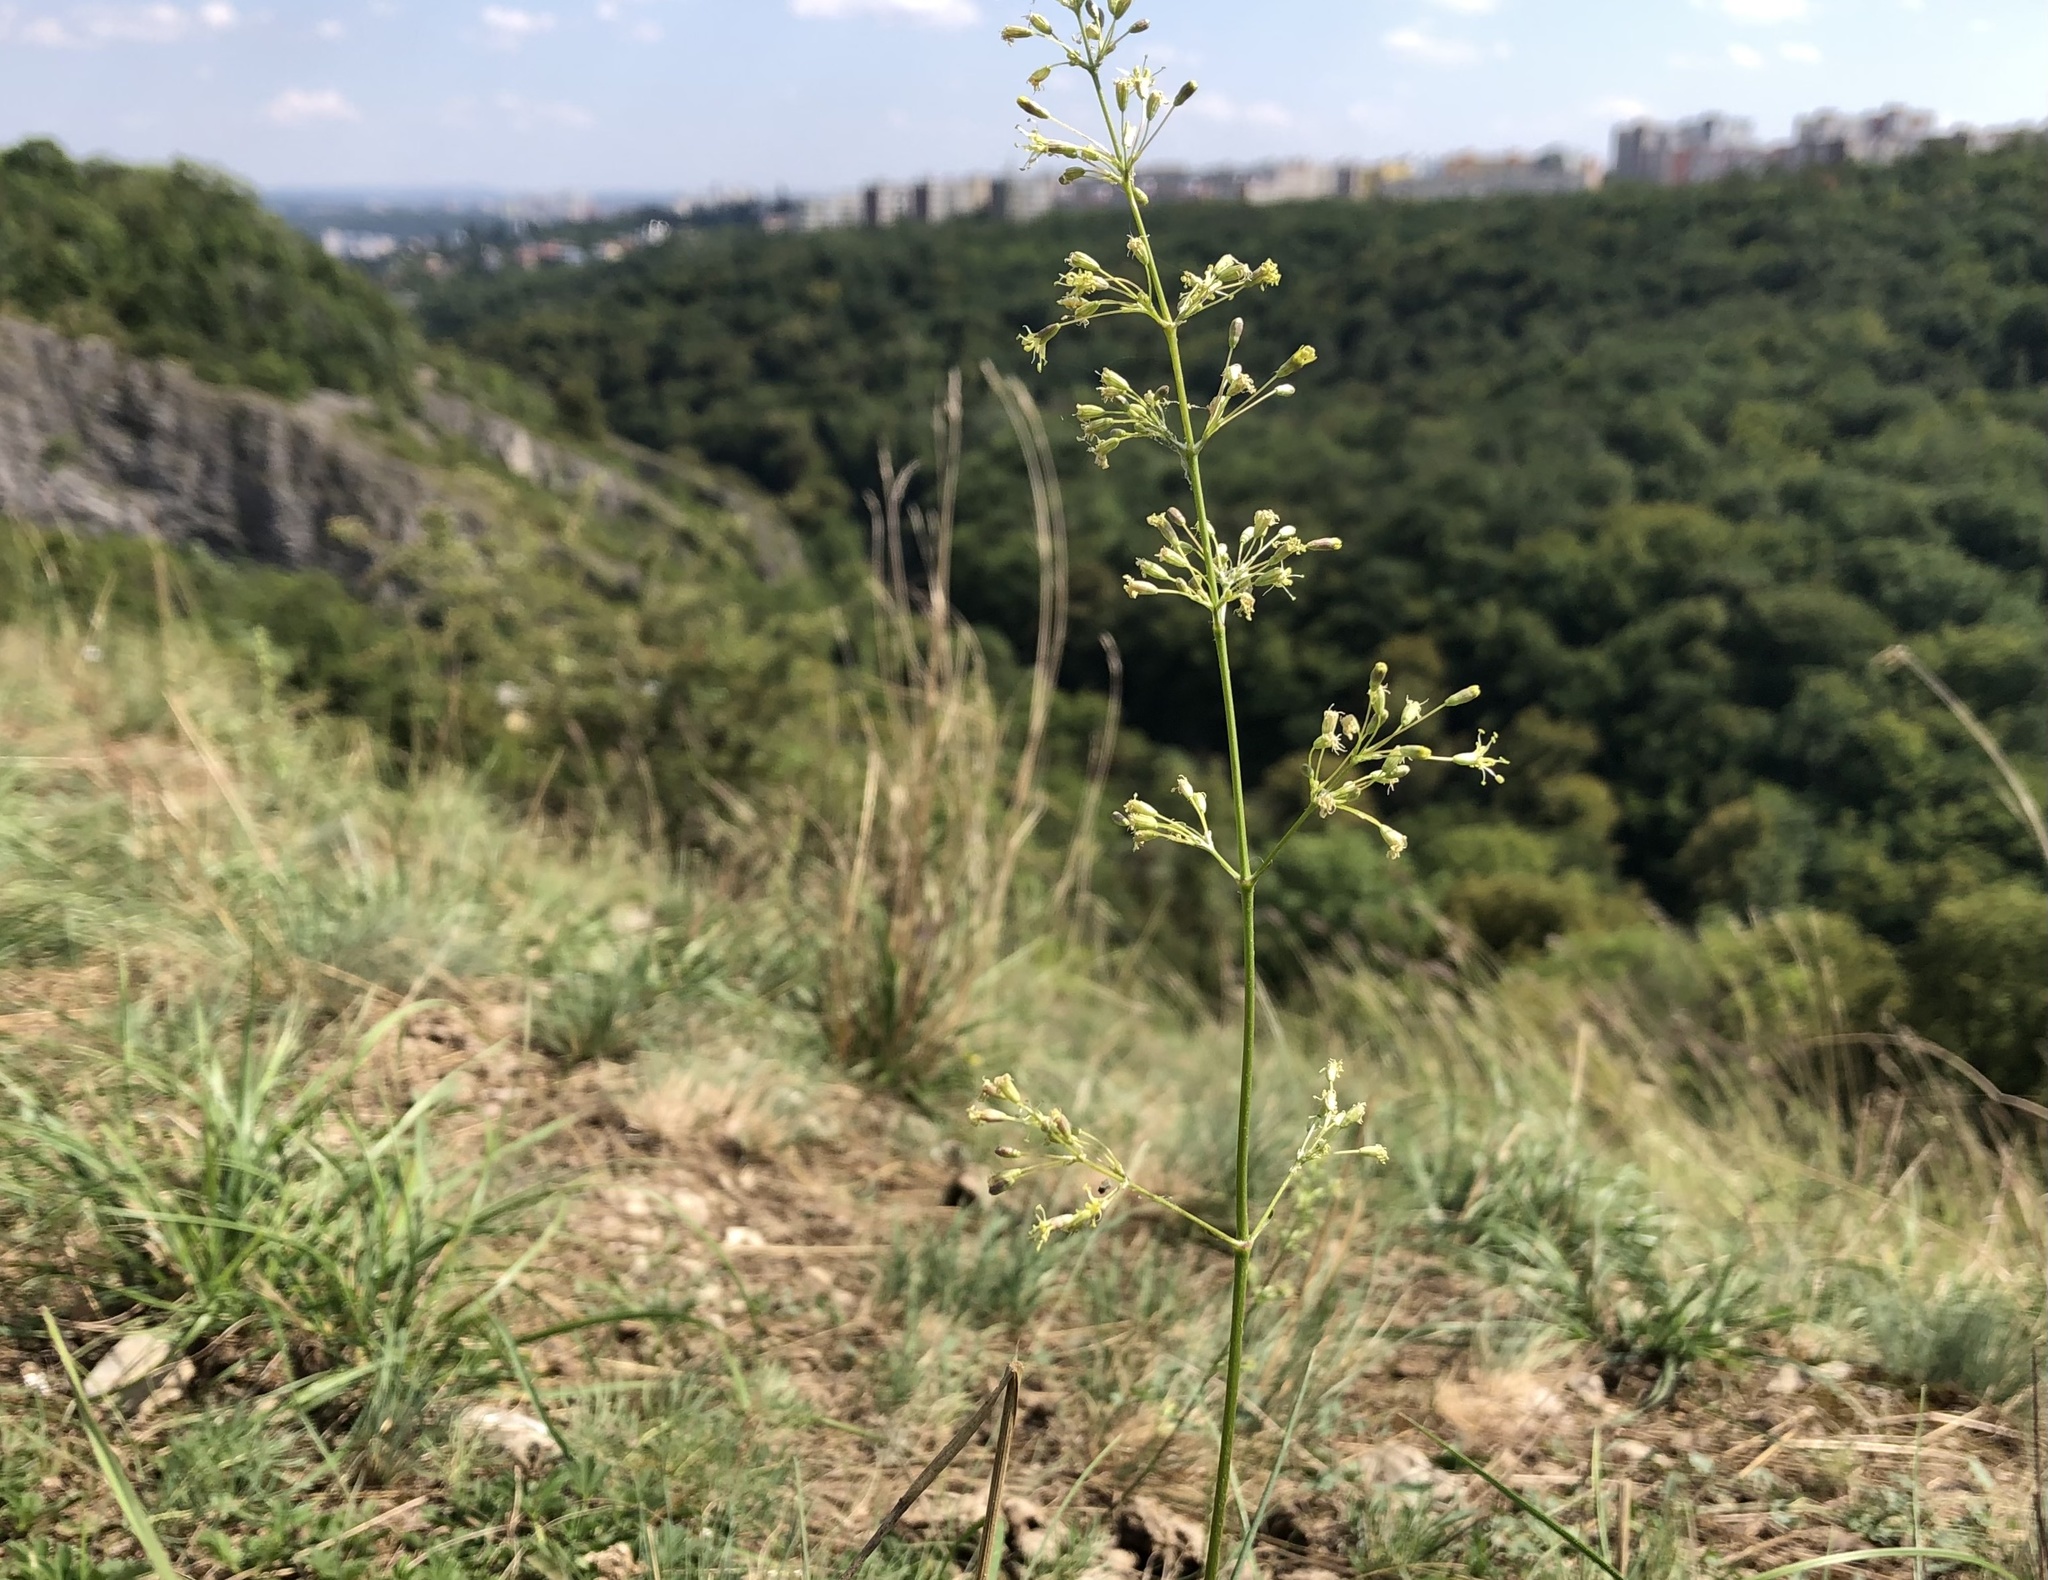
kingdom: Plantae
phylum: Tracheophyta
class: Magnoliopsida
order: Caryophyllales
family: Caryophyllaceae
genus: Silene
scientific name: Silene otites
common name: Spanish catchfly
